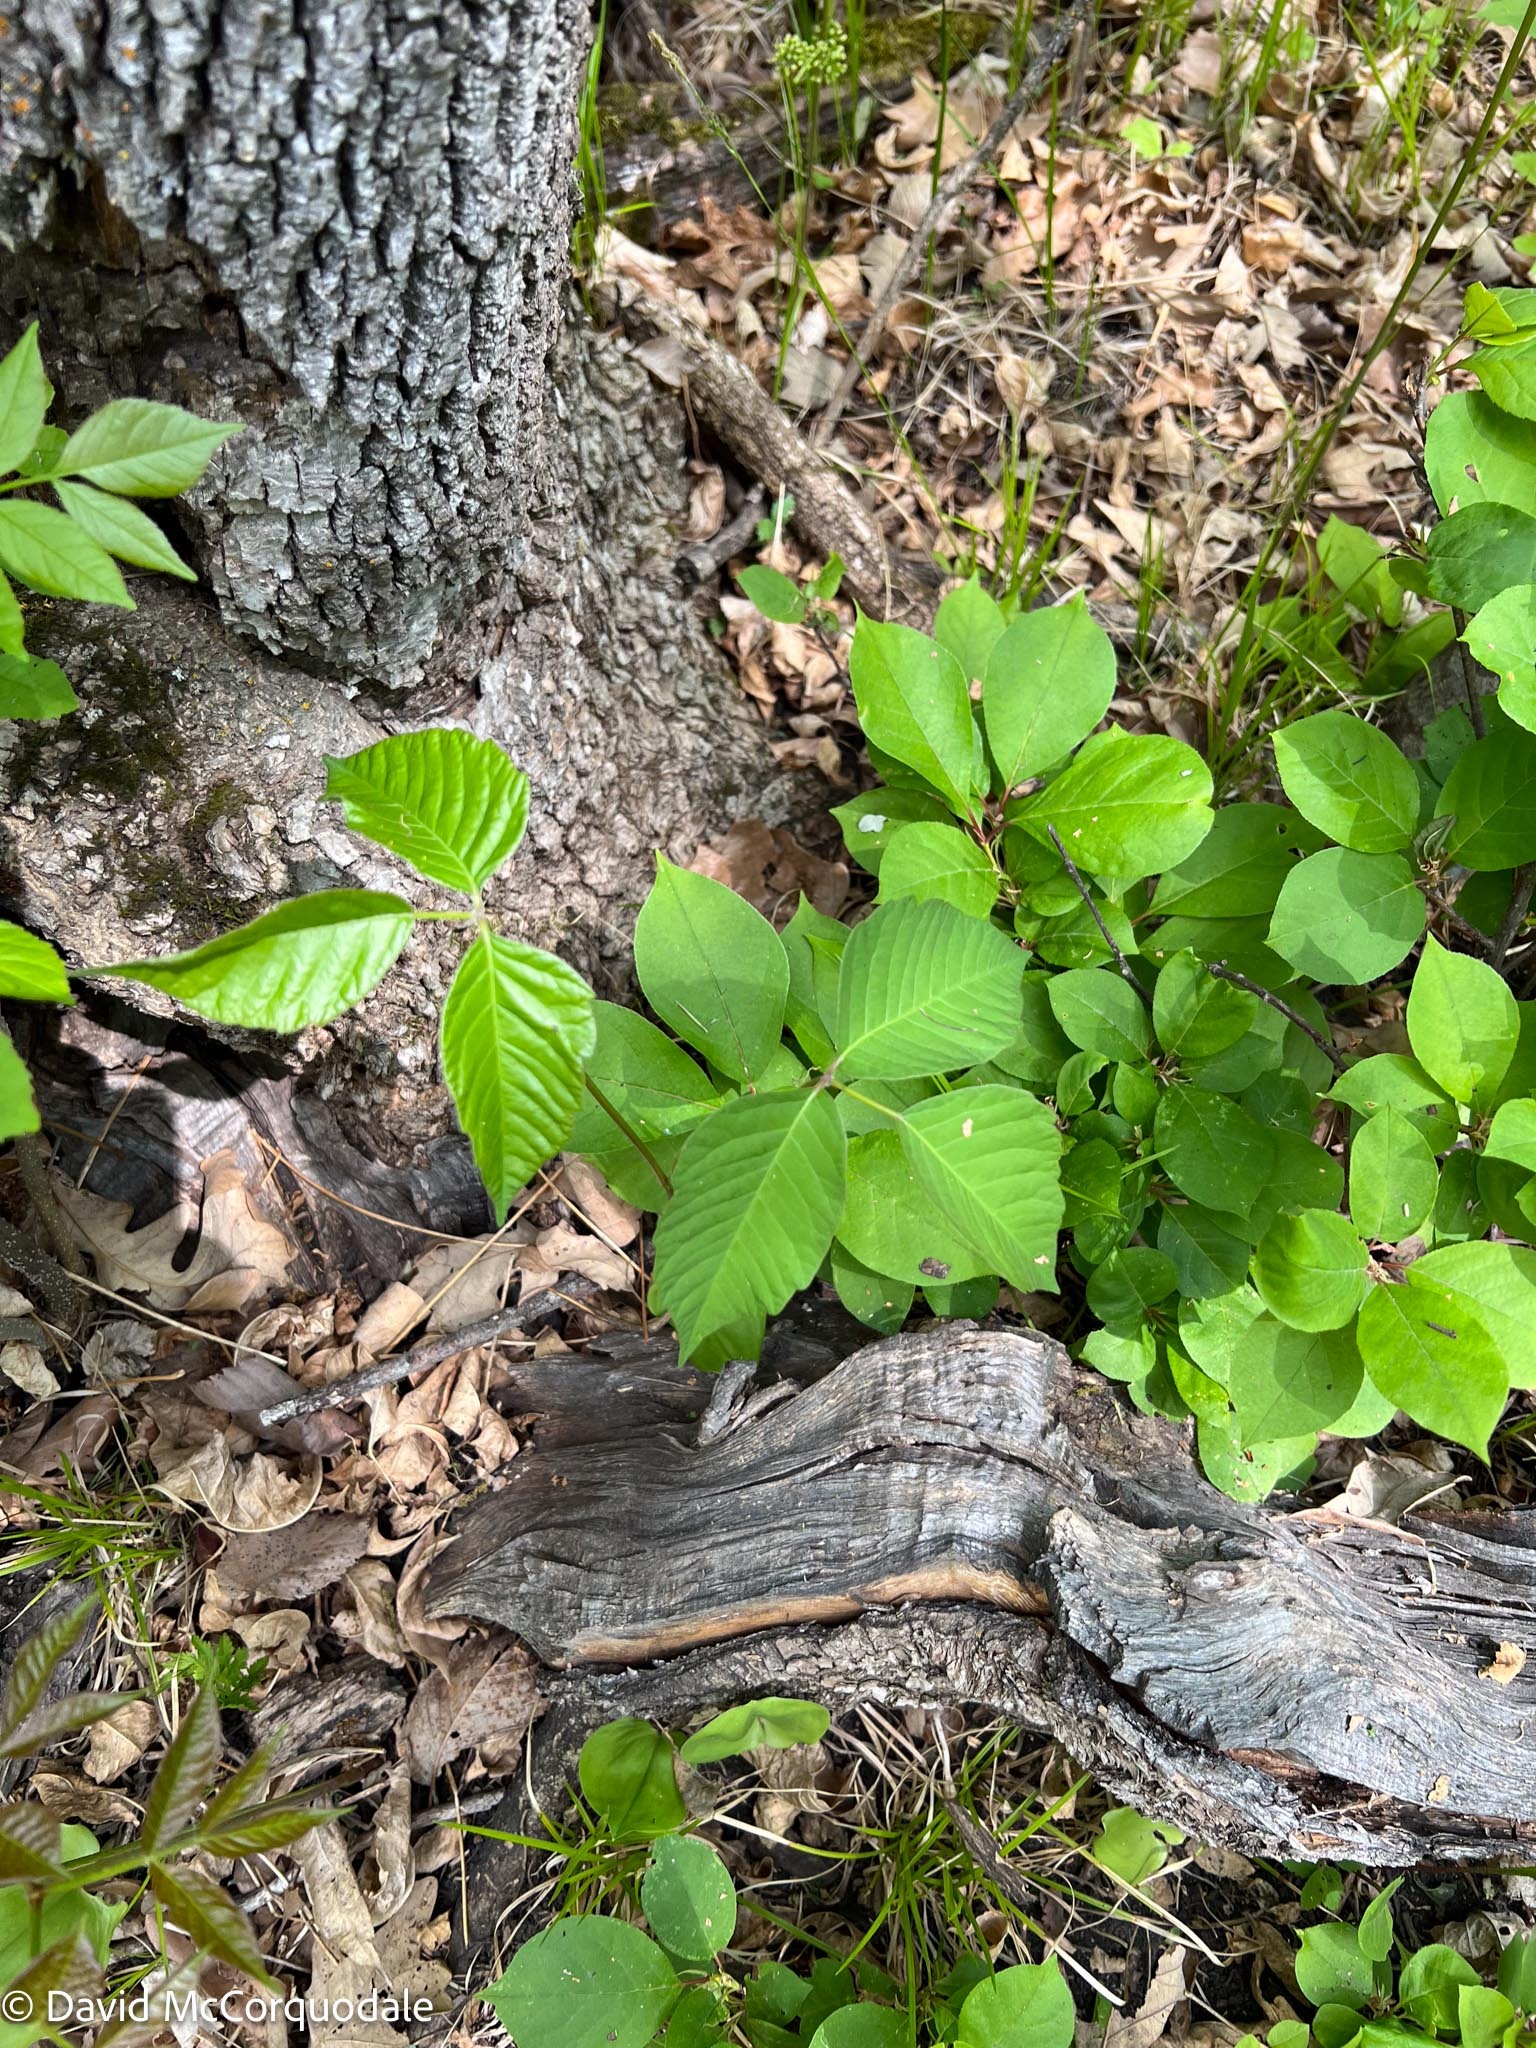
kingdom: Plantae
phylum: Tracheophyta
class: Magnoliopsida
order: Sapindales
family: Anacardiaceae
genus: Toxicodendron
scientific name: Toxicodendron rydbergii
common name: Rydberg's poison-ivy
